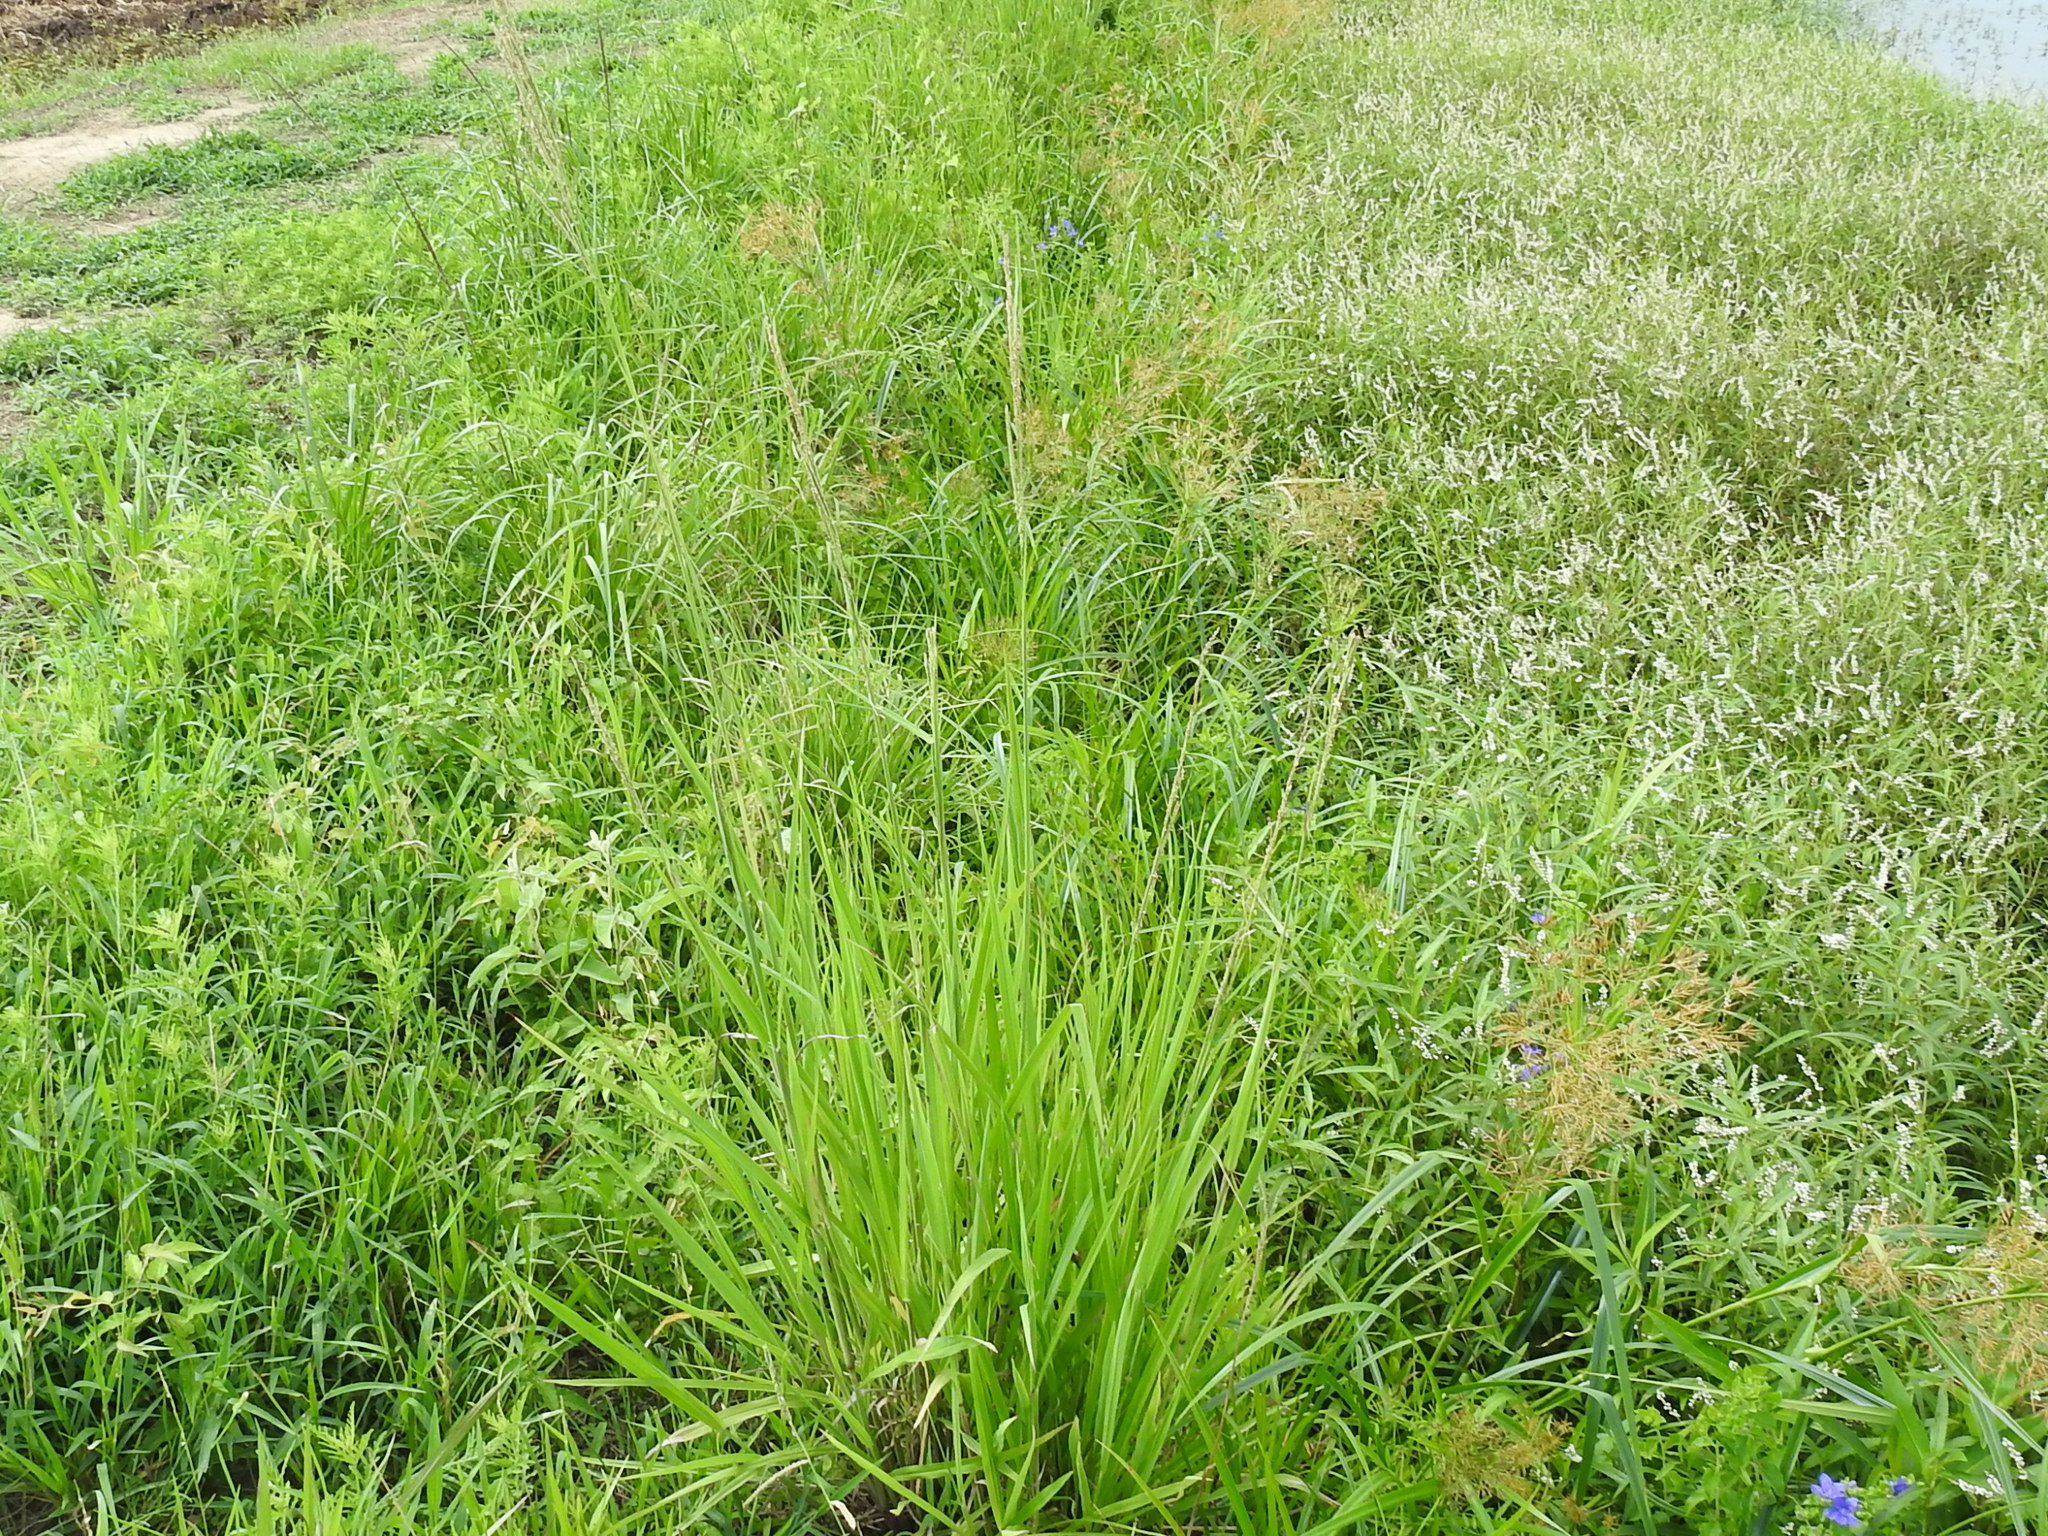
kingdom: Plantae
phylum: Tracheophyta
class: Liliopsida
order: Poales
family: Poaceae
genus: Paspalum
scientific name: Paspalum urvillei
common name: Vasey's grass
